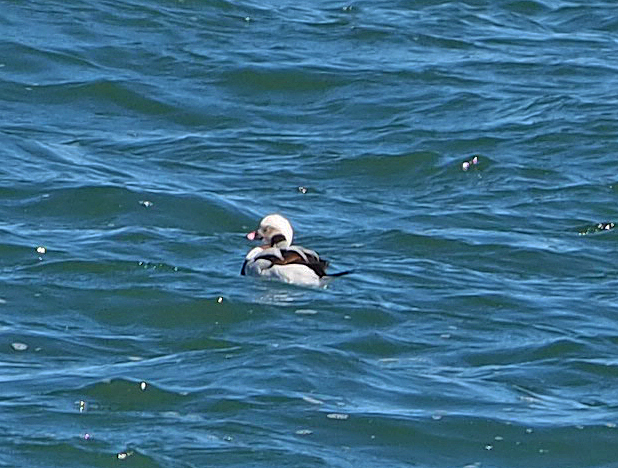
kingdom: Animalia
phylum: Chordata
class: Aves
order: Anseriformes
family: Anatidae
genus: Clangula
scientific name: Clangula hyemalis
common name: Long-tailed duck
